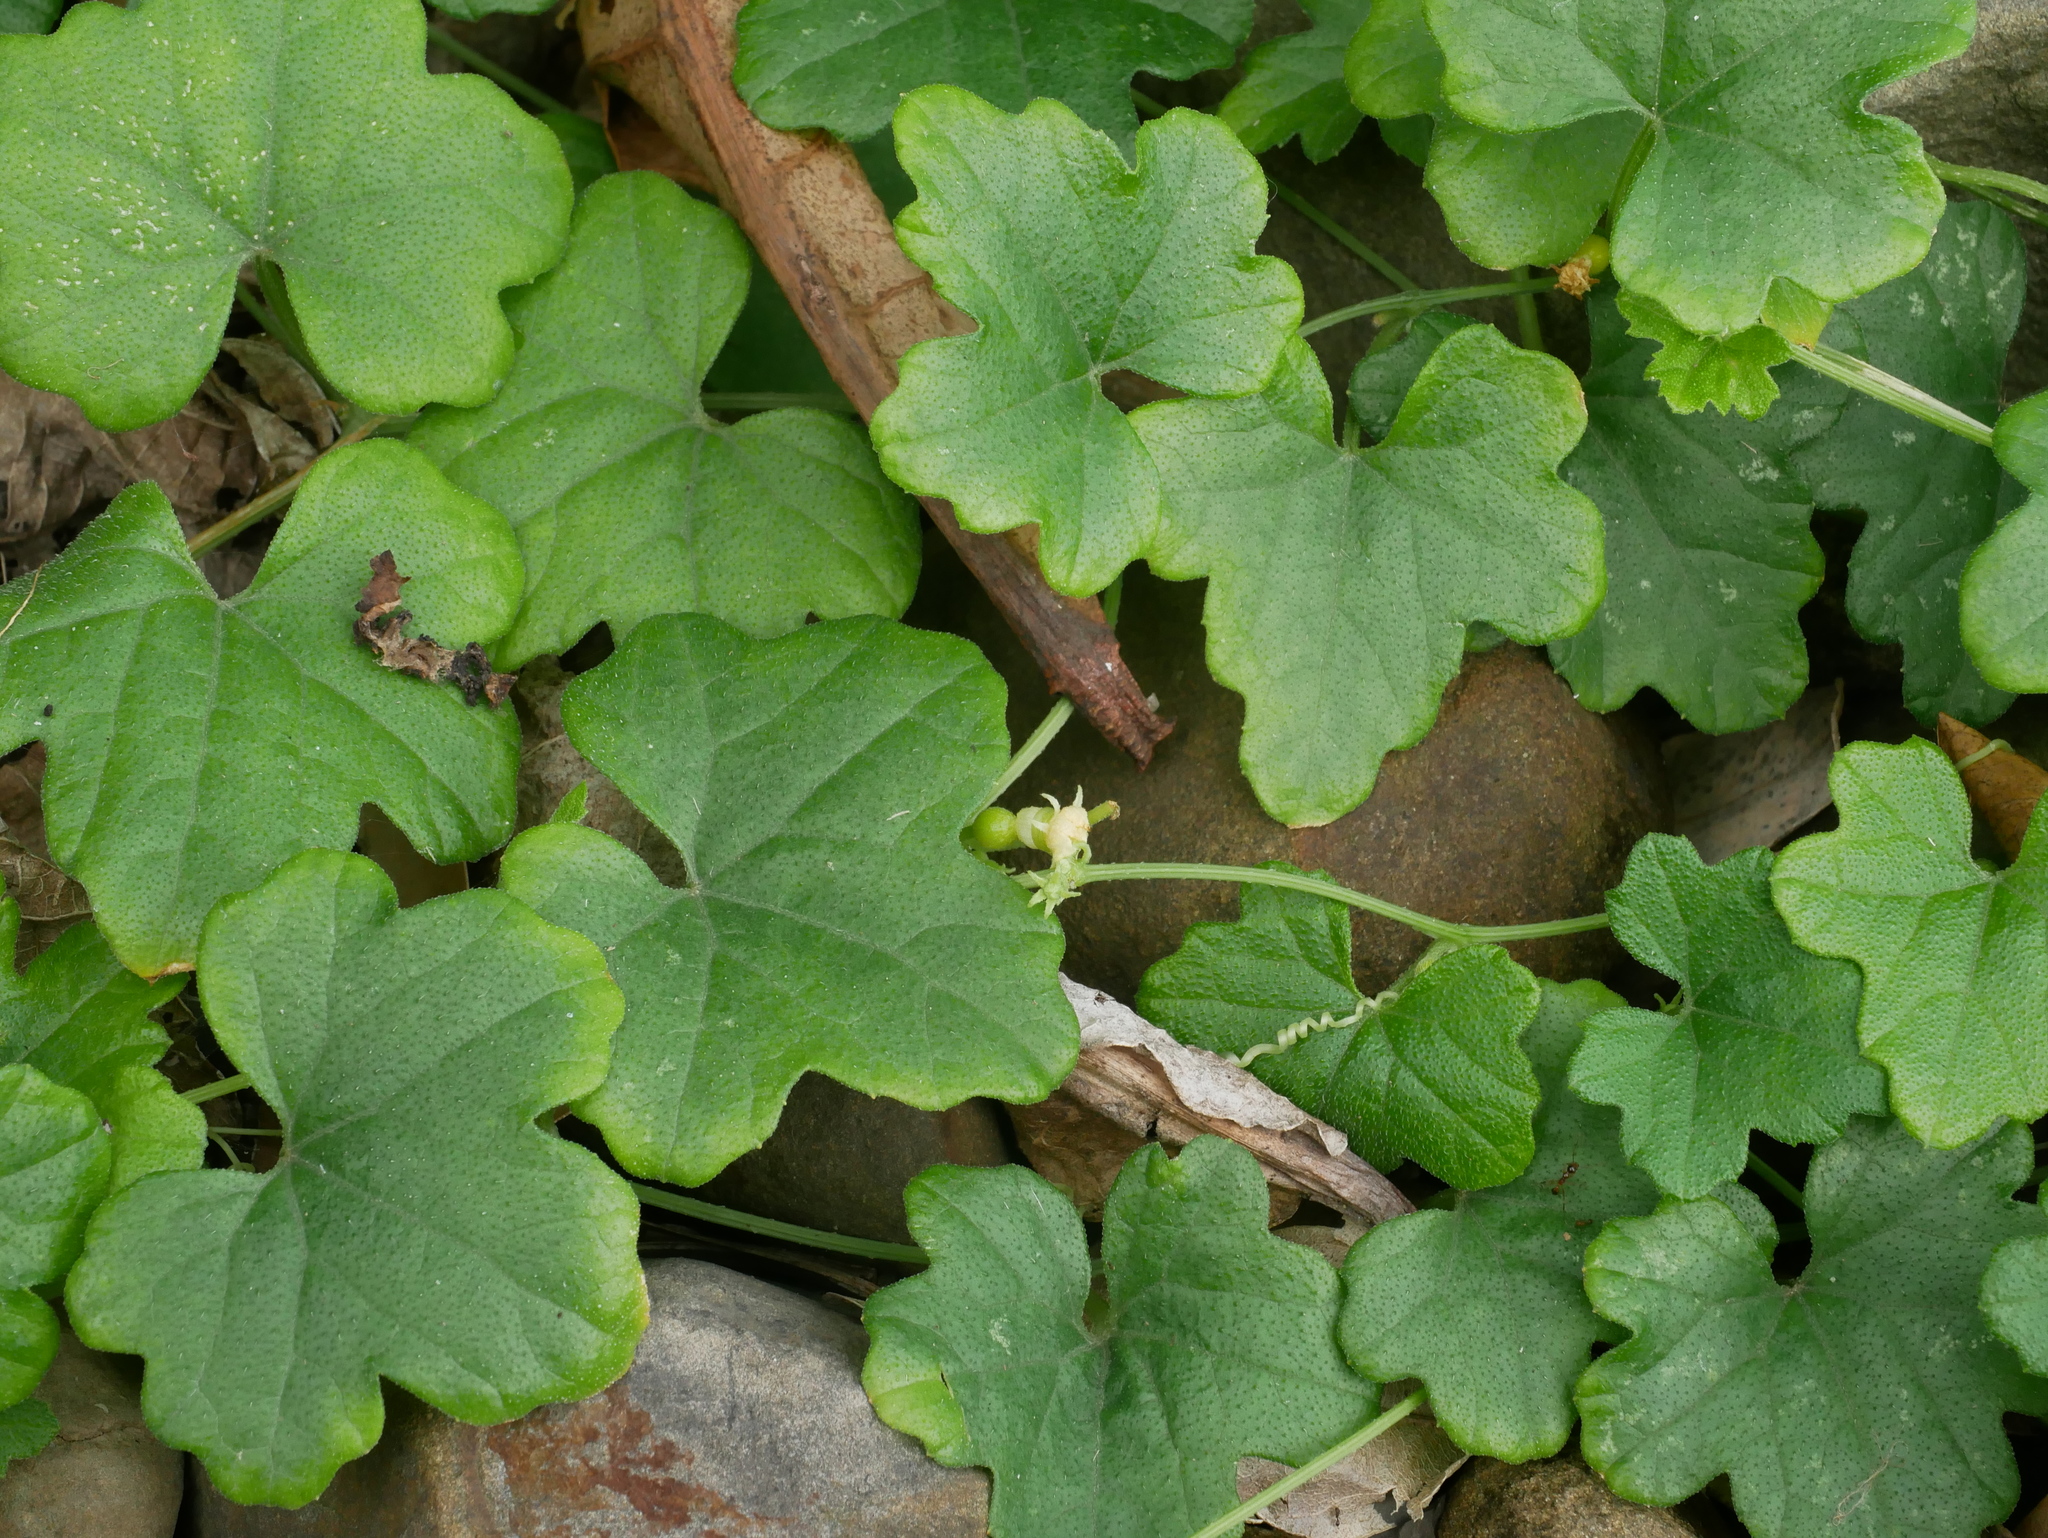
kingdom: Plantae
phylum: Tracheophyta
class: Magnoliopsida
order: Fabales
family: Fabaceae
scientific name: Fabaceae
